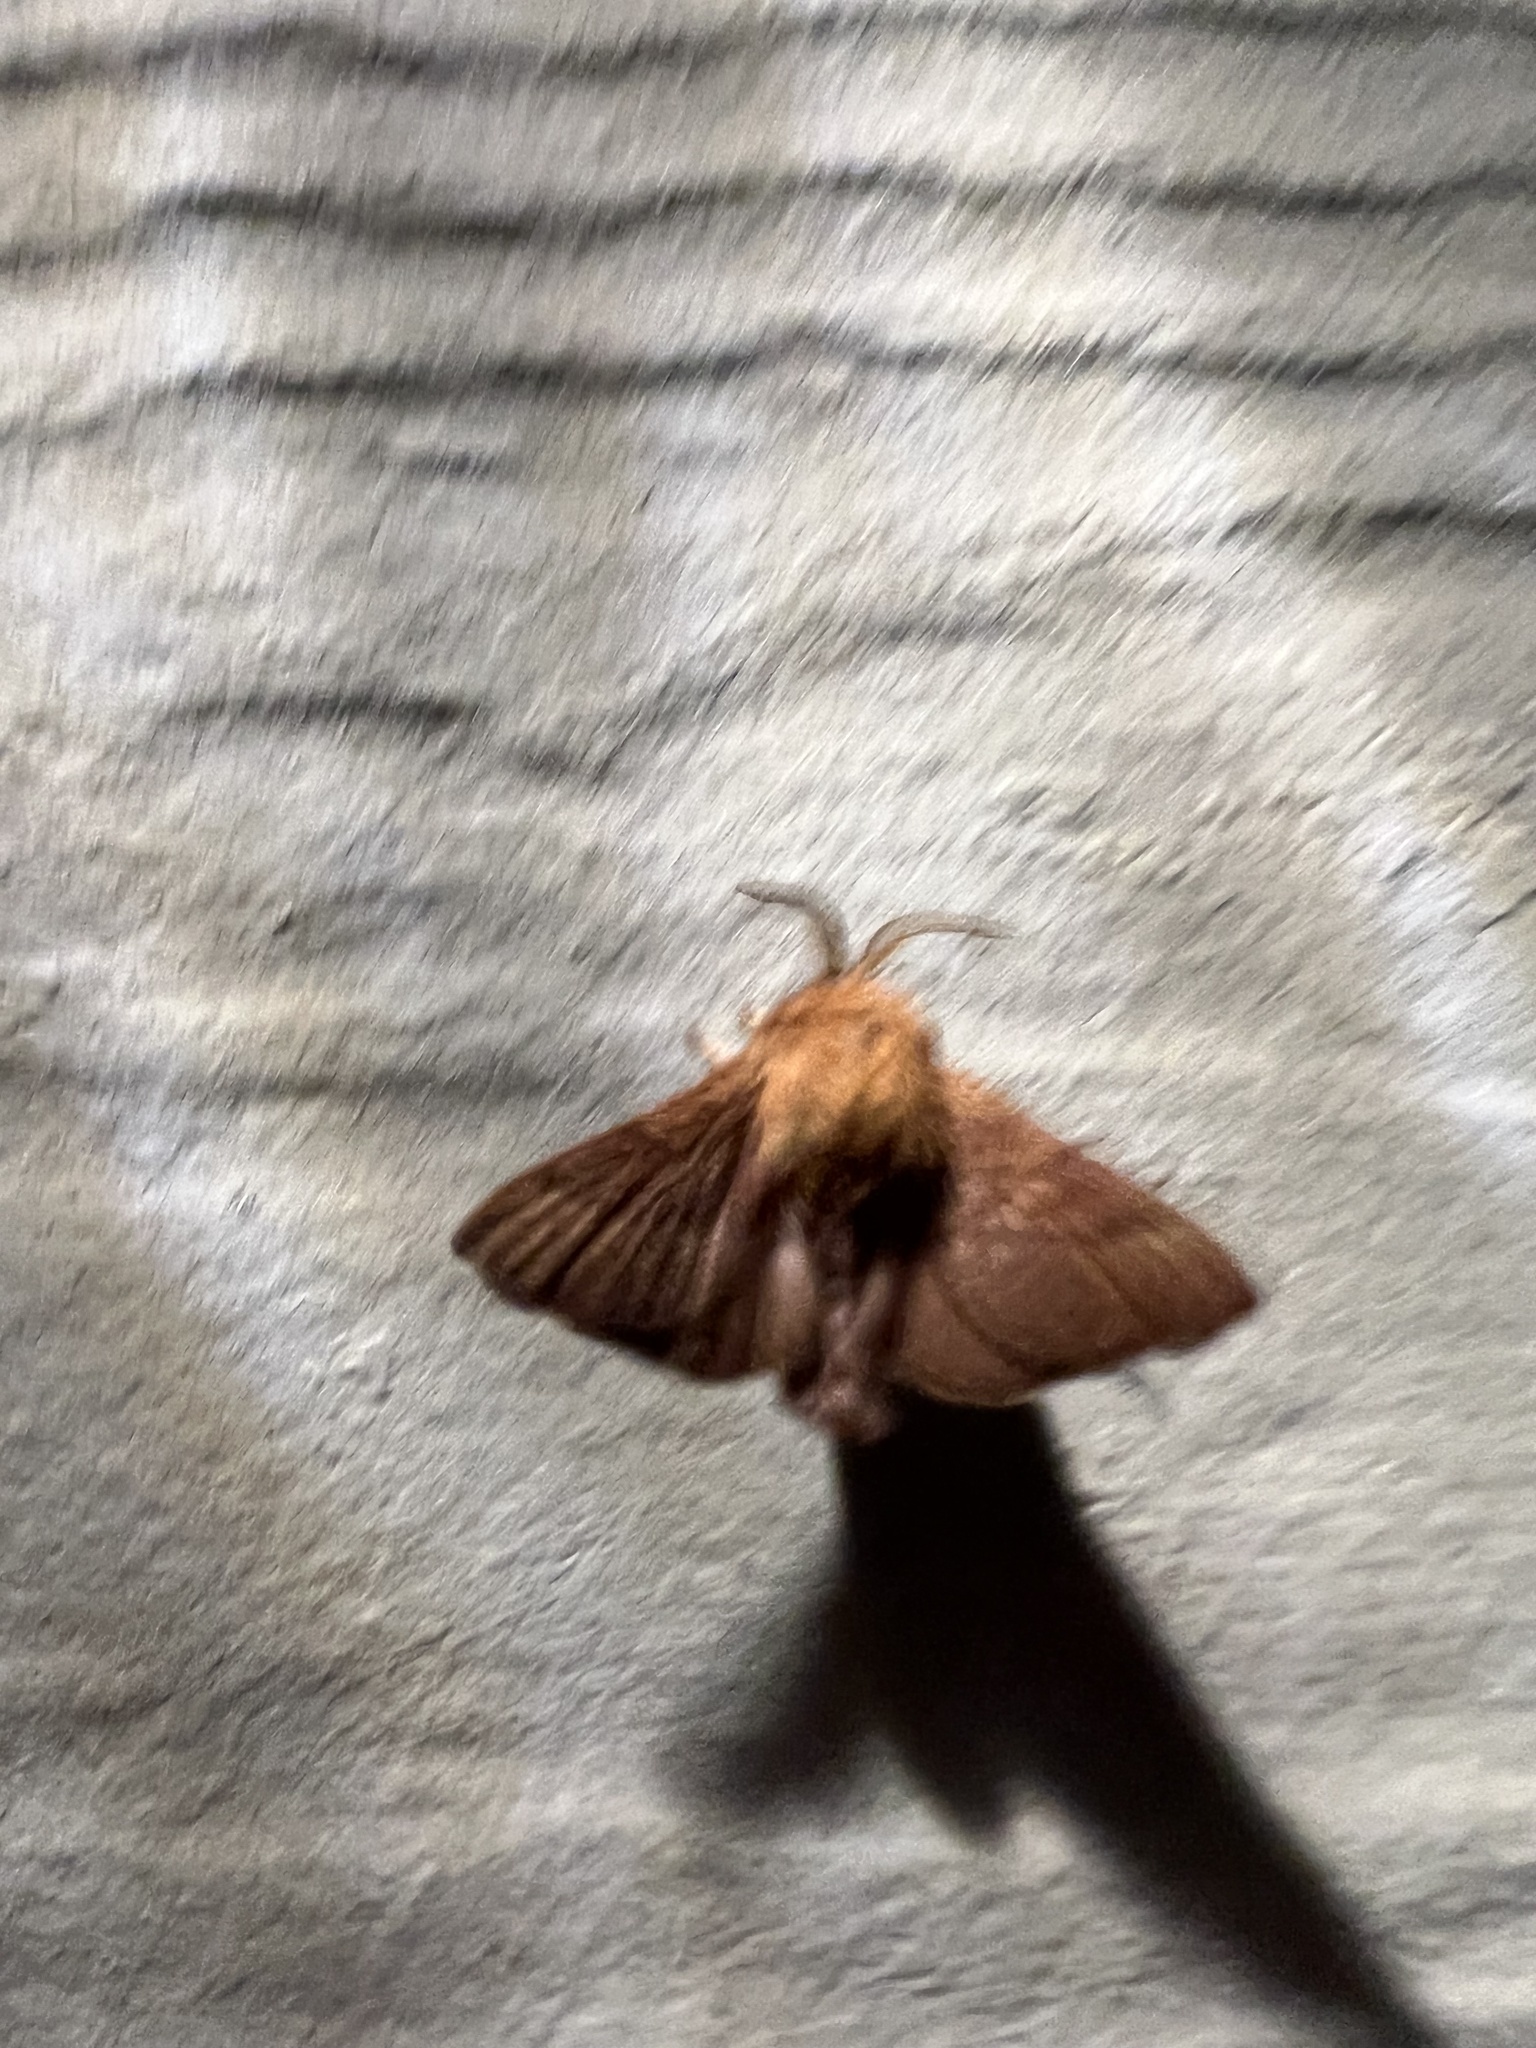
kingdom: Animalia
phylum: Arthropoda
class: Insecta
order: Lepidoptera
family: Lasiocampidae
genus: Malacosoma
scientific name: Malacosoma disstria
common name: Forest tent caterpillar
